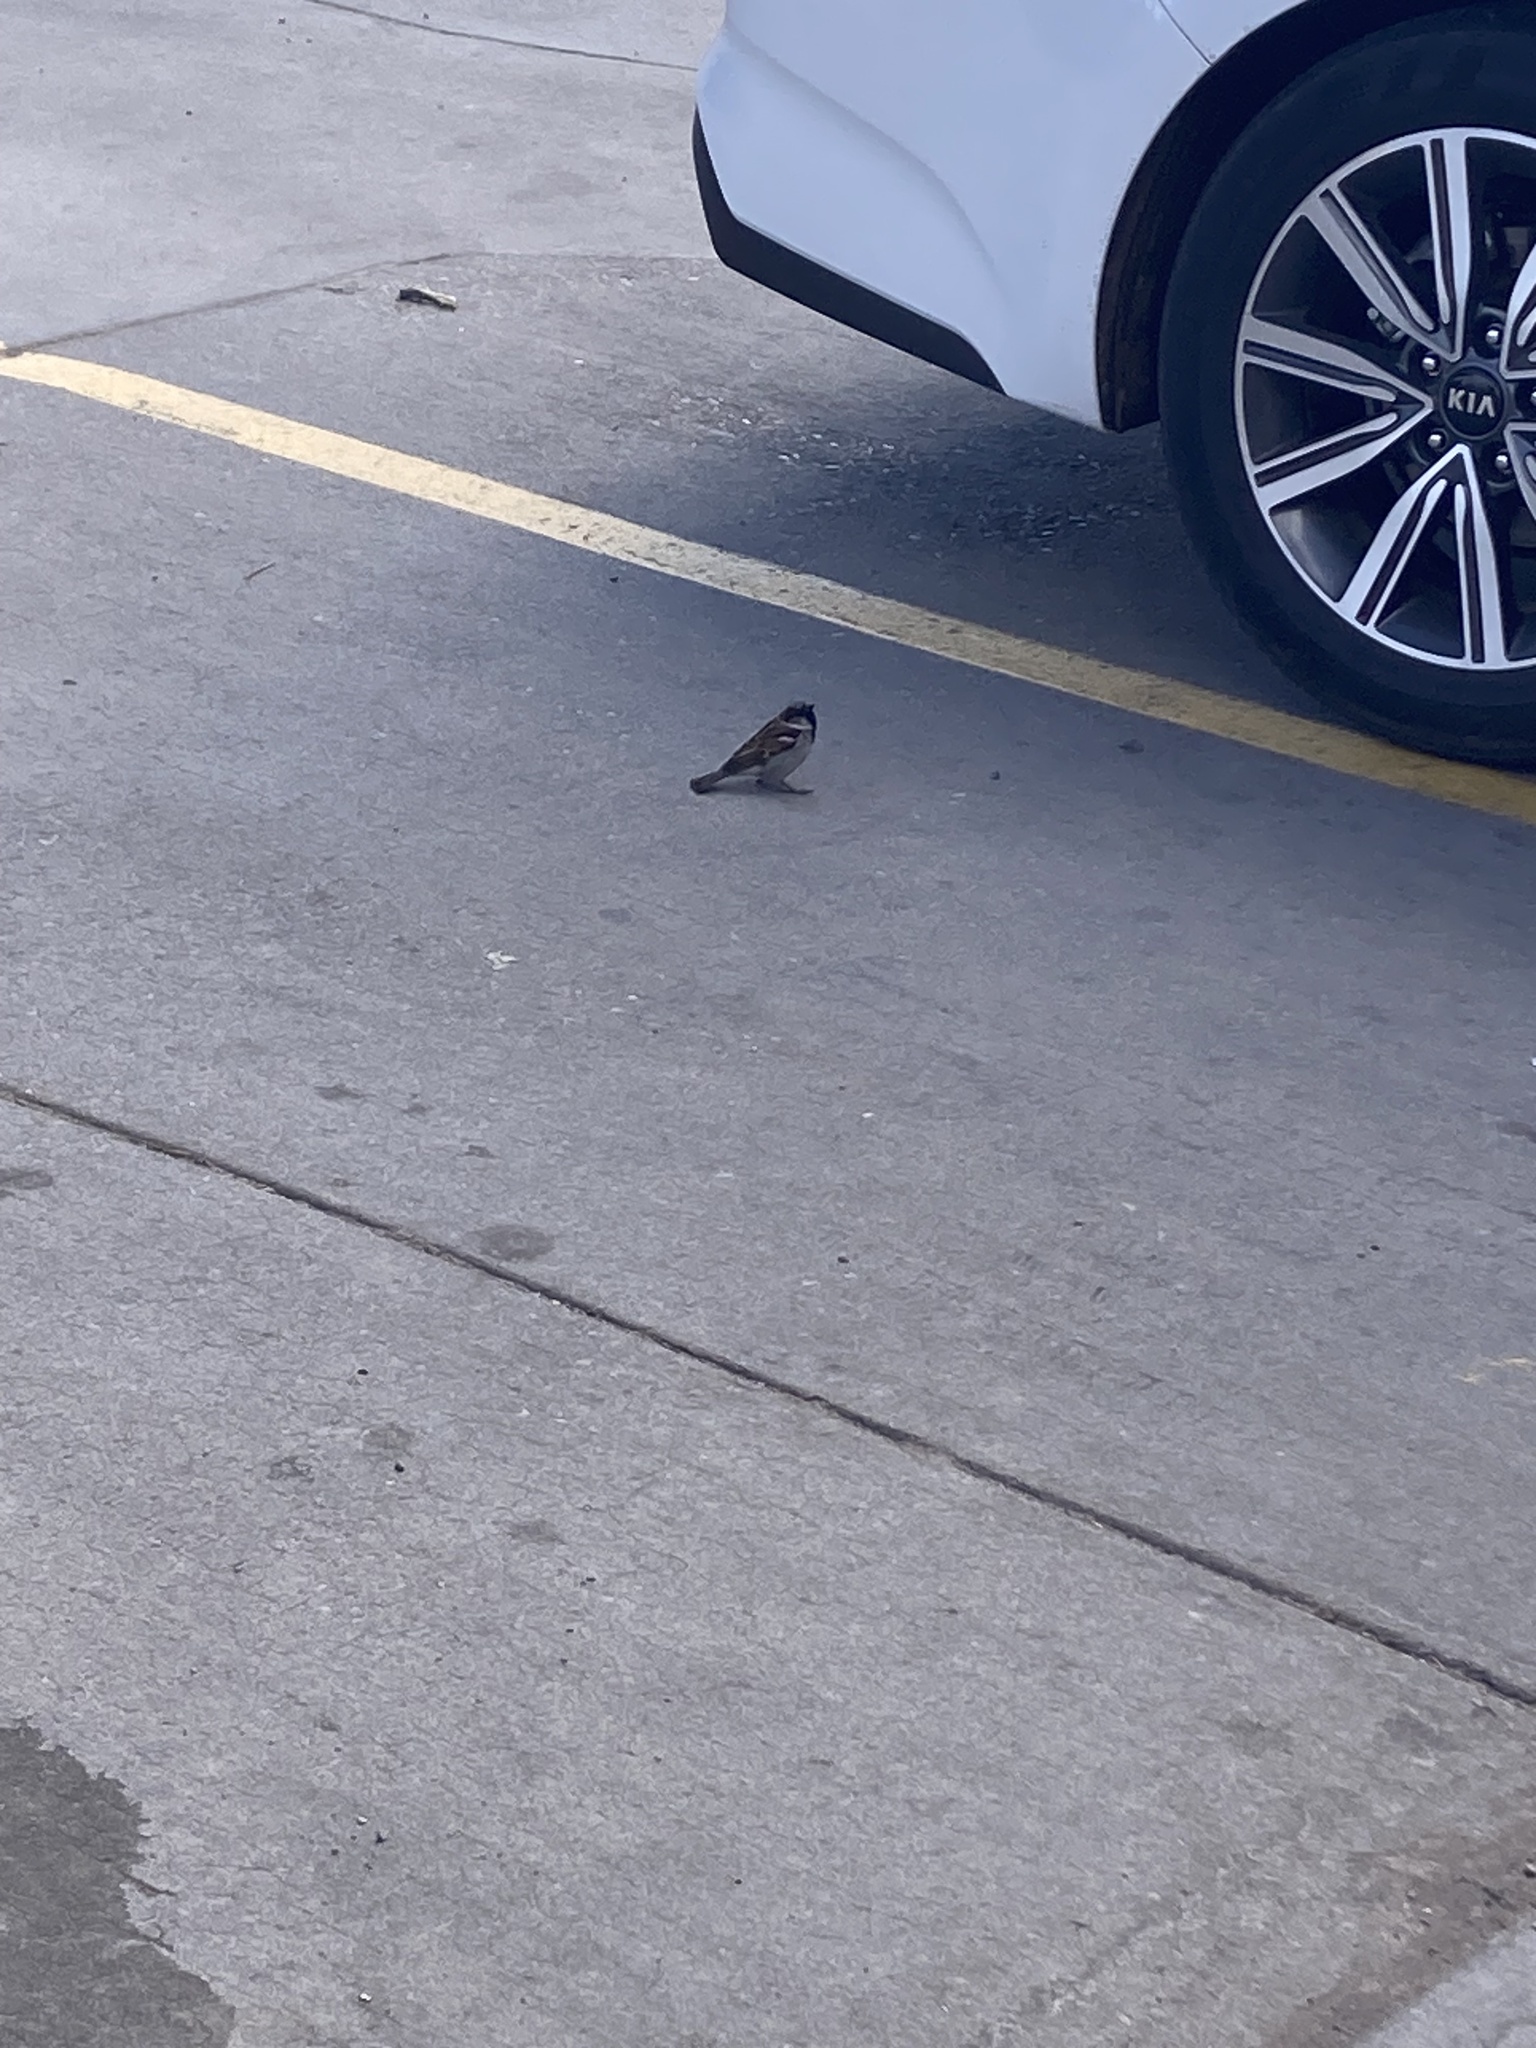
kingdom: Animalia
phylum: Chordata
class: Aves
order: Passeriformes
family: Passeridae
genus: Passer
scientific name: Passer domesticus
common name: House sparrow
